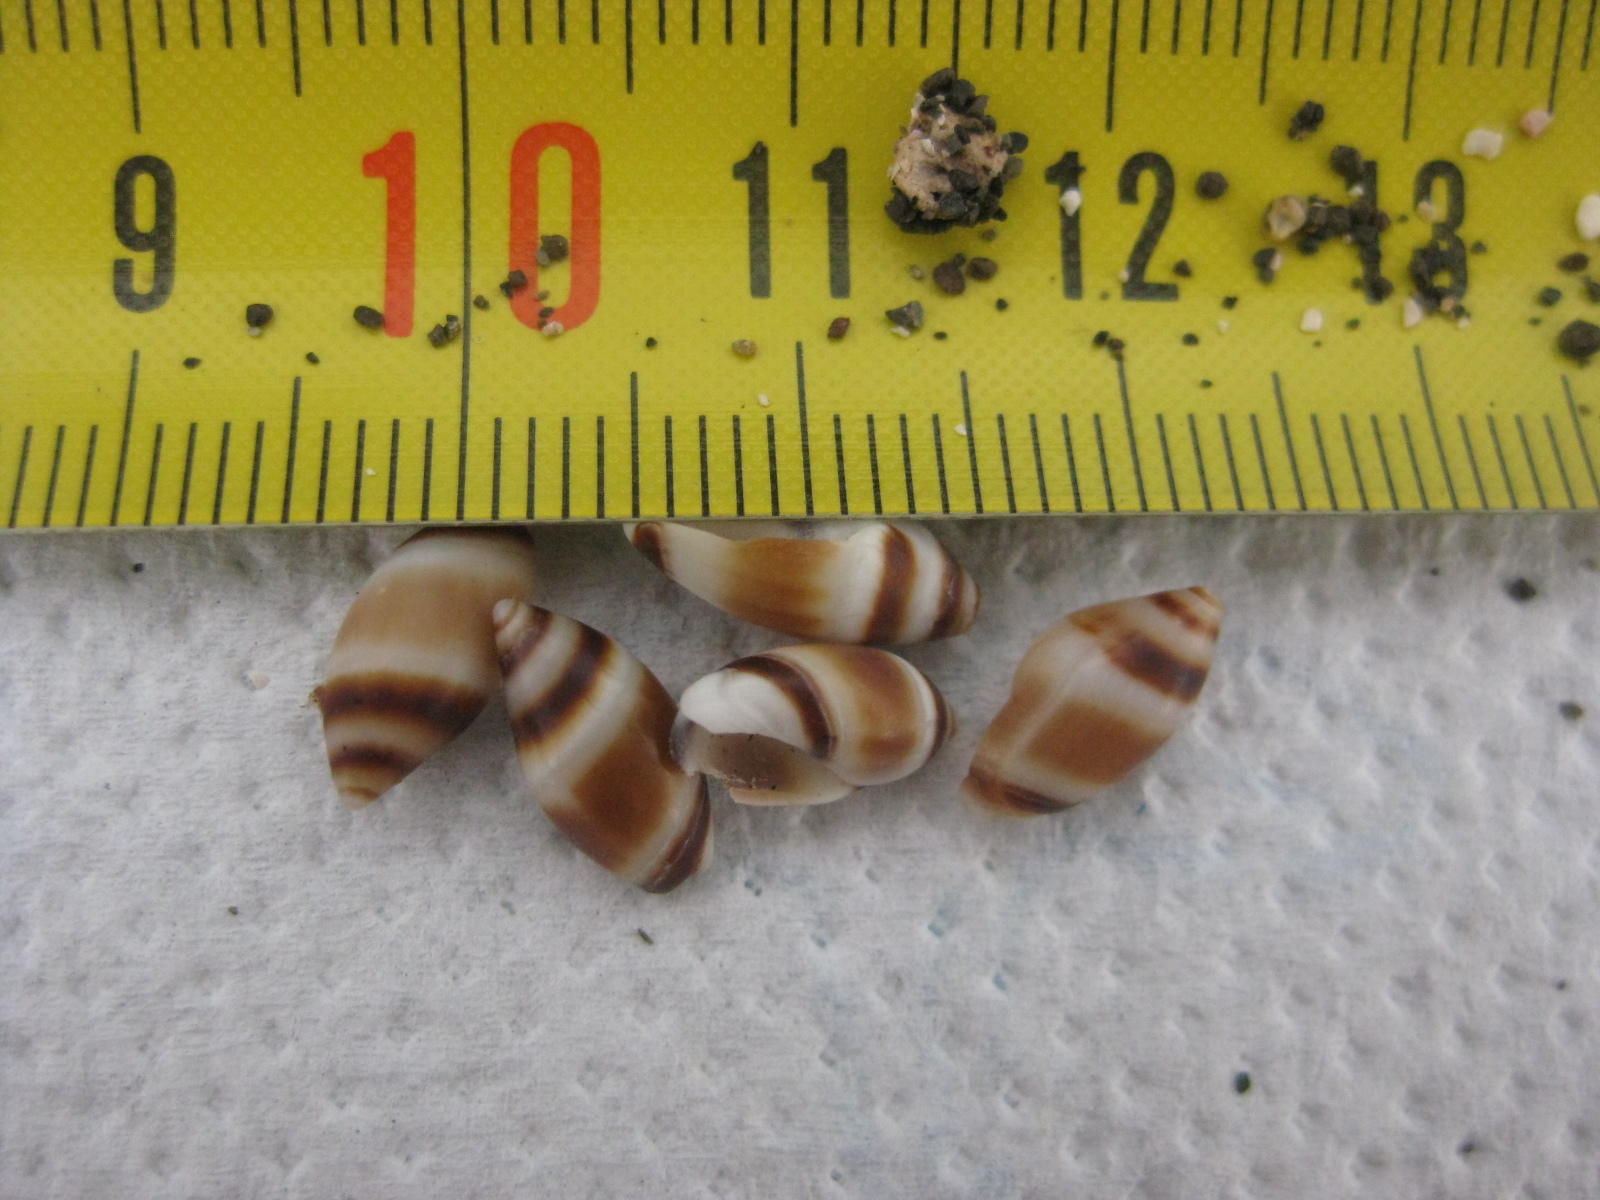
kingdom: Animalia
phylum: Mollusca
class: Gastropoda
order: Neogastropoda
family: Ancillariidae
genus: Amalda
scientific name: Amalda northlandica
